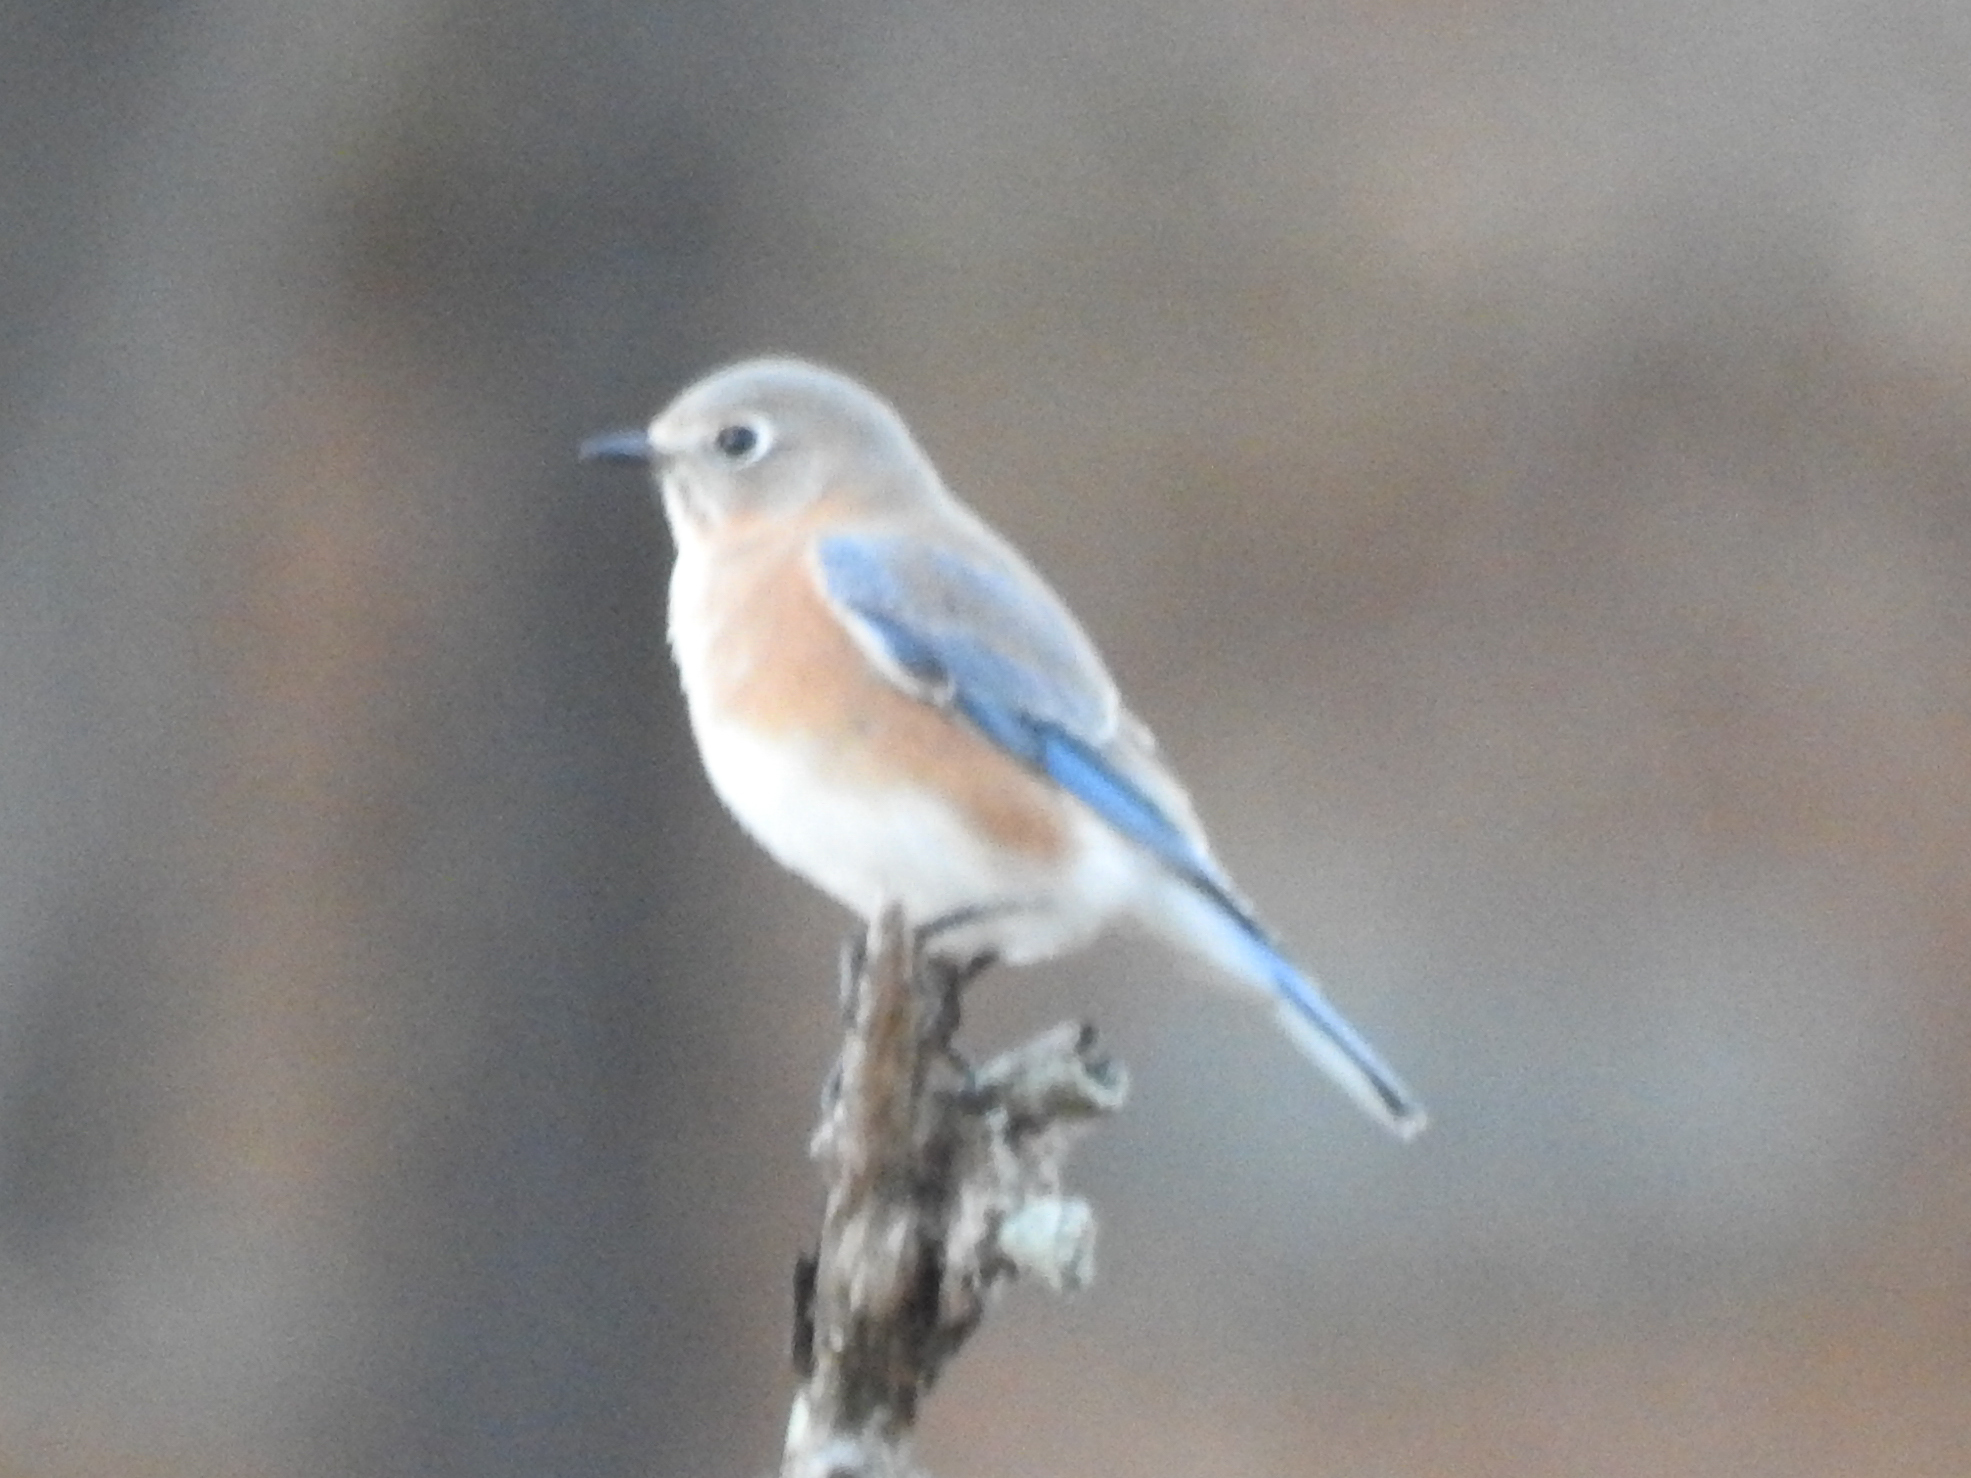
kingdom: Animalia
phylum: Chordata
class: Aves
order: Passeriformes
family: Turdidae
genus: Sialia
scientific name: Sialia sialis
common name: Eastern bluebird
